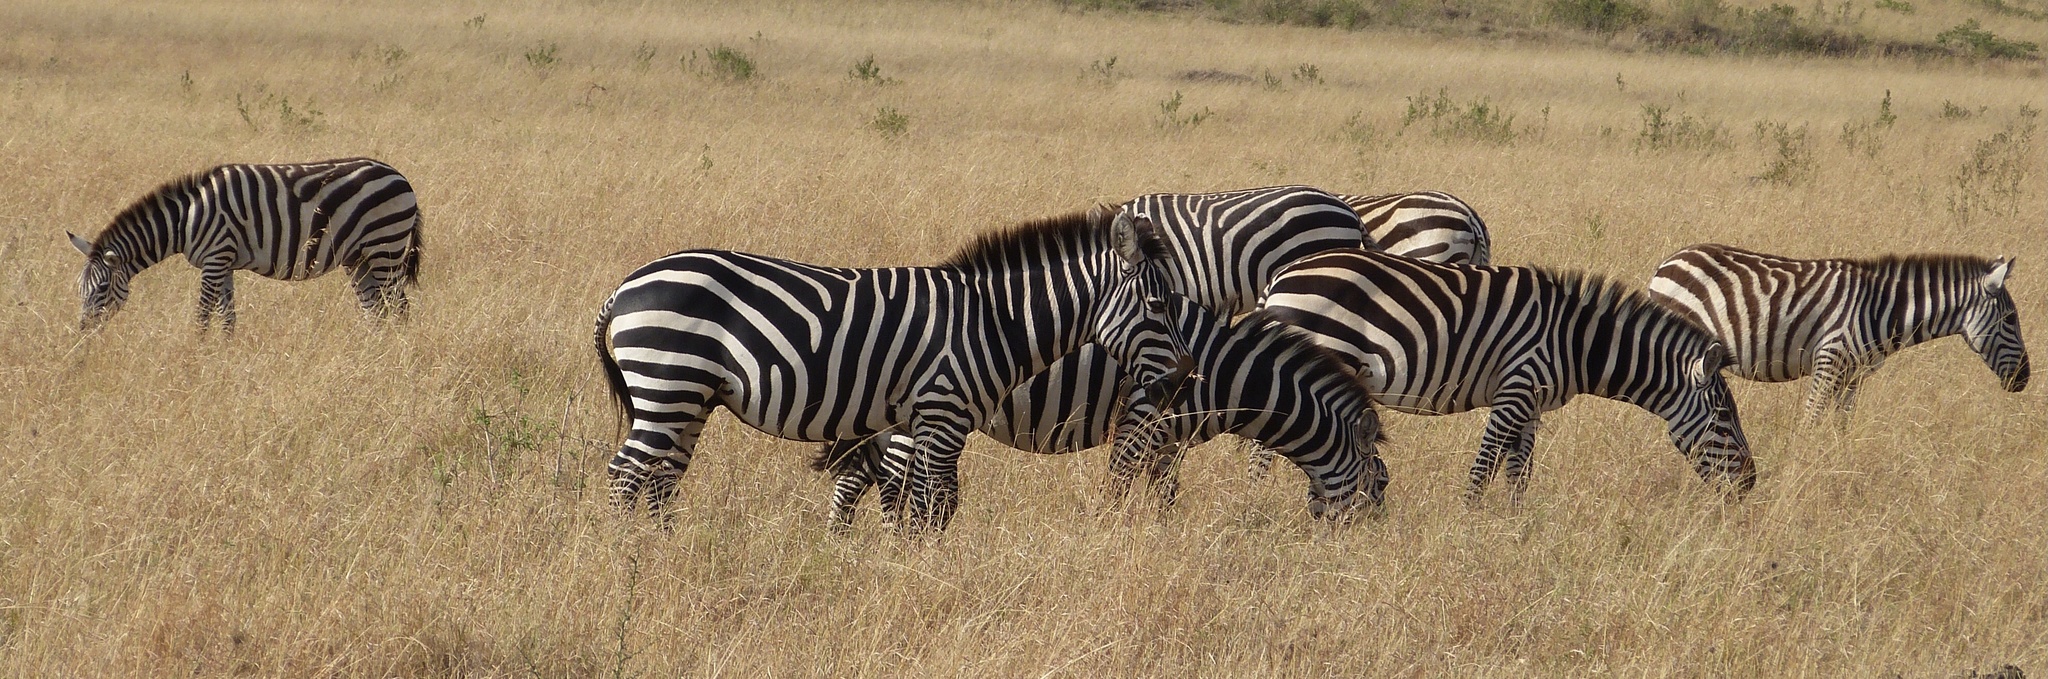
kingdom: Animalia
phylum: Chordata
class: Mammalia
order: Perissodactyla
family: Equidae
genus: Equus
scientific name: Equus quagga
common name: Plains zebra
